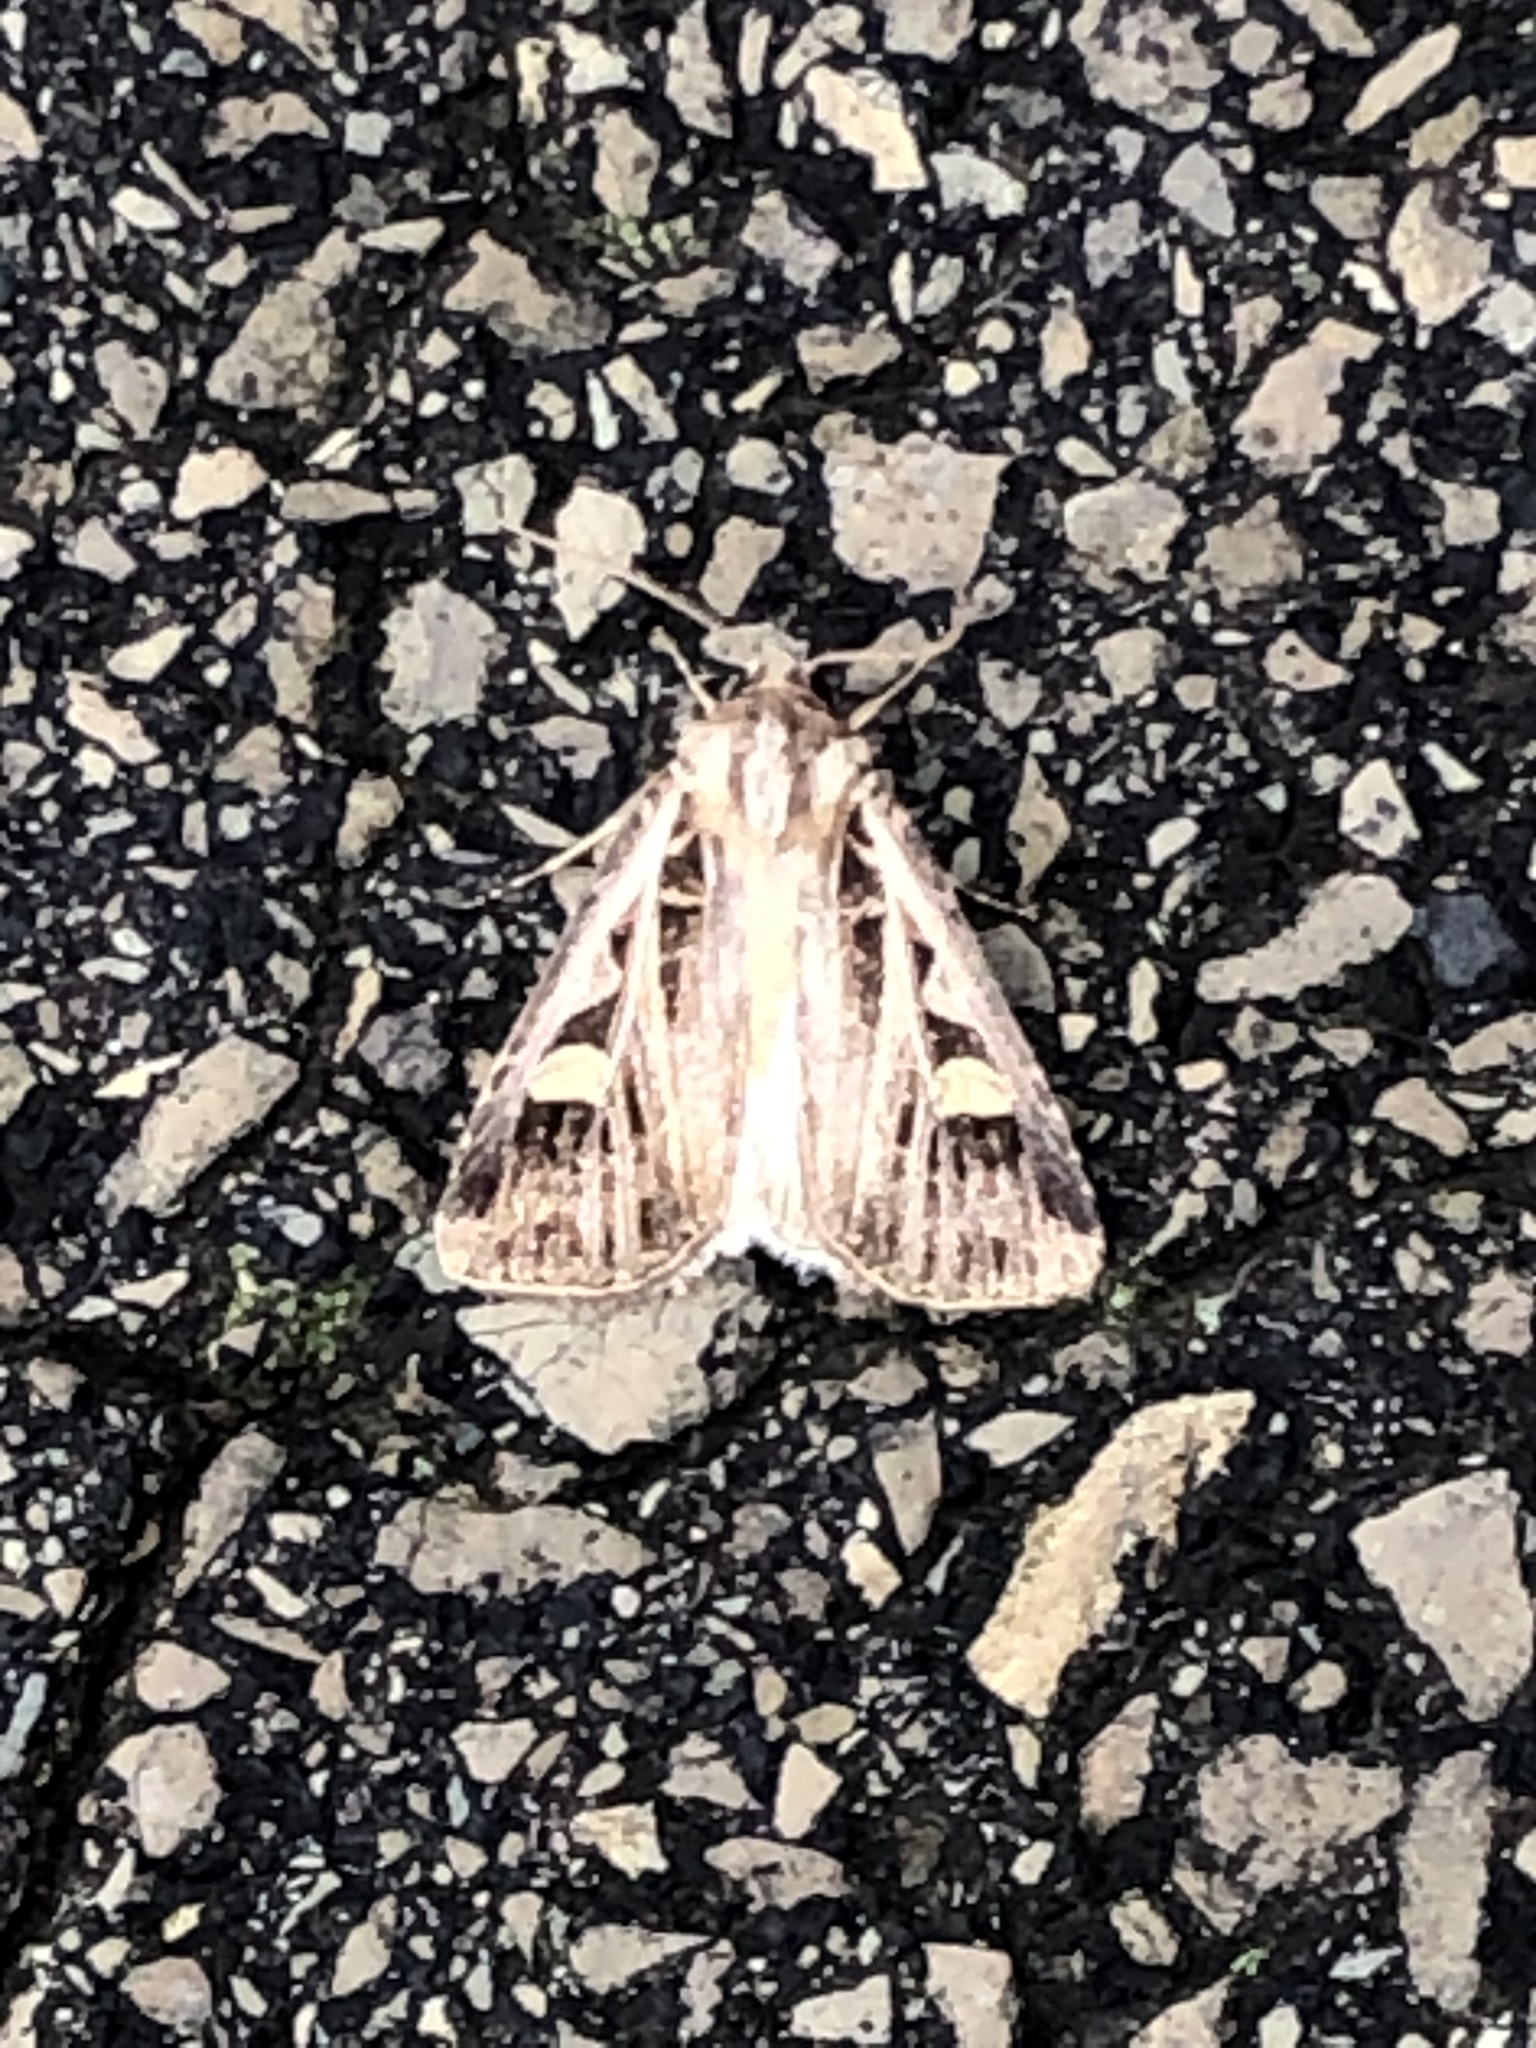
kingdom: Animalia
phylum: Arthropoda
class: Insecta
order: Lepidoptera
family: Noctuidae
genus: Feltia
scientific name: Feltia jaculifera
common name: Dingy cutworm moth
